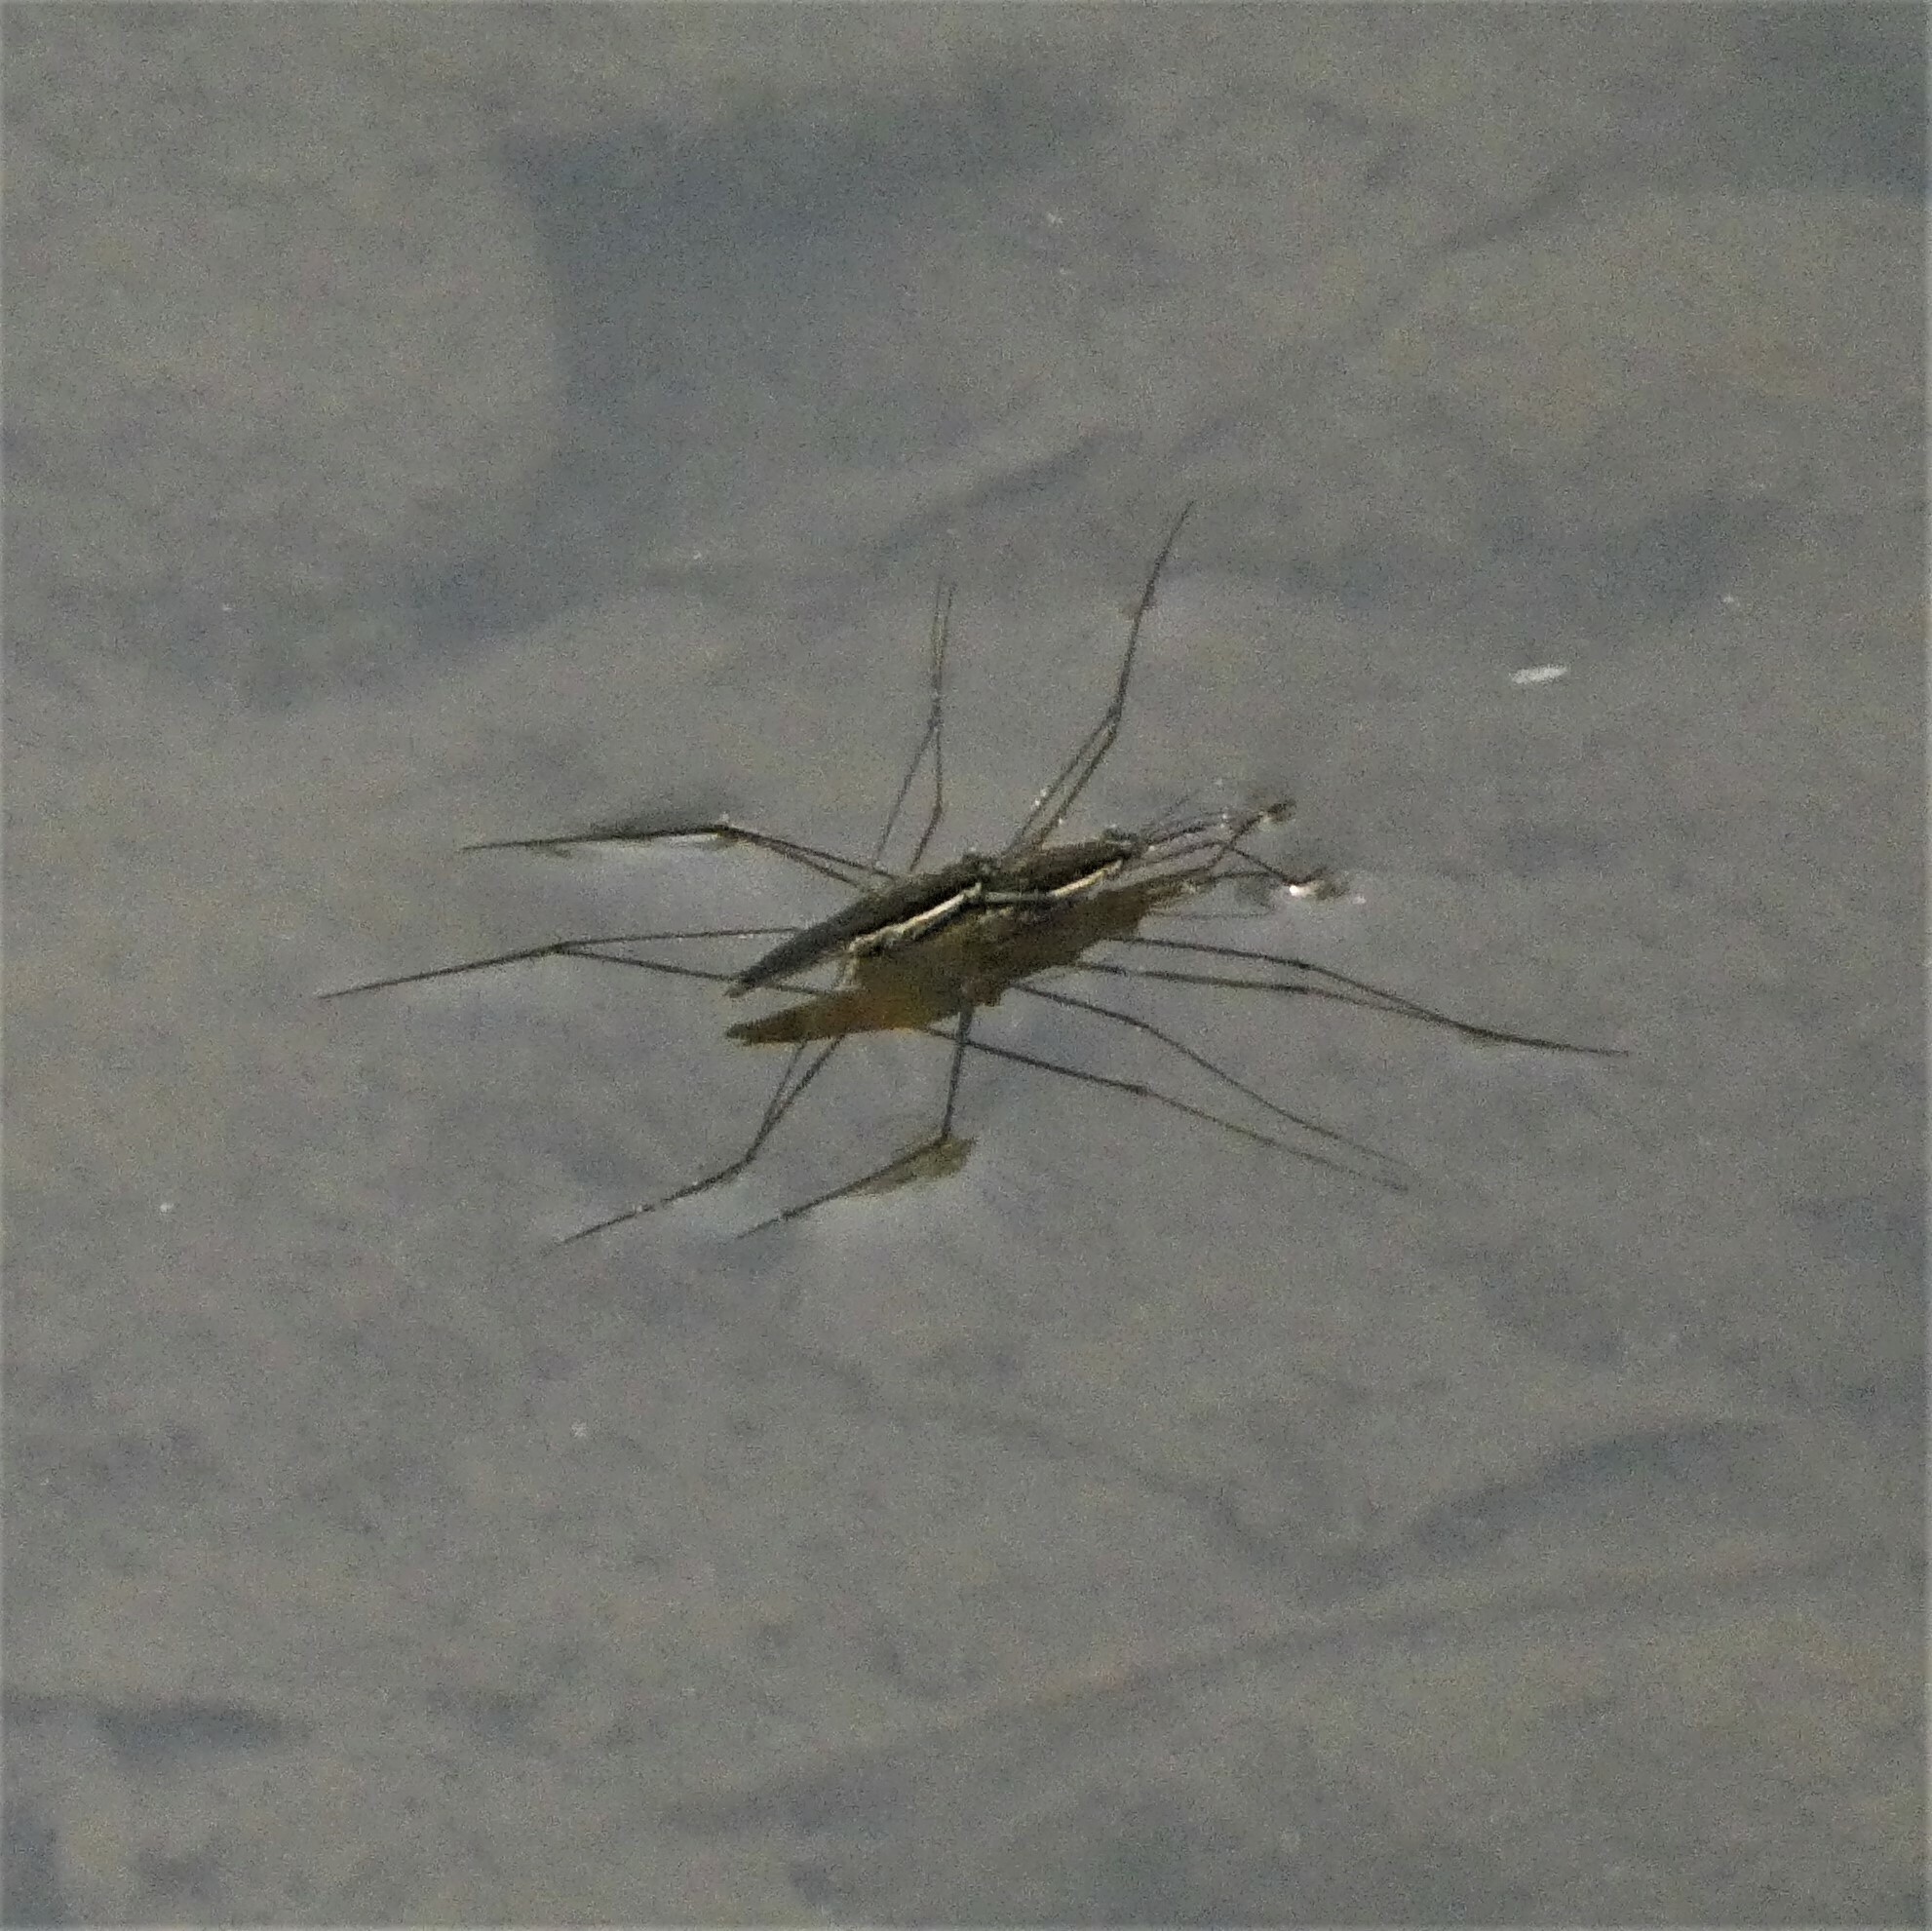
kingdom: Animalia
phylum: Arthropoda
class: Insecta
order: Hemiptera
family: Gerridae
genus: Aquarius
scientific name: Aquarius
